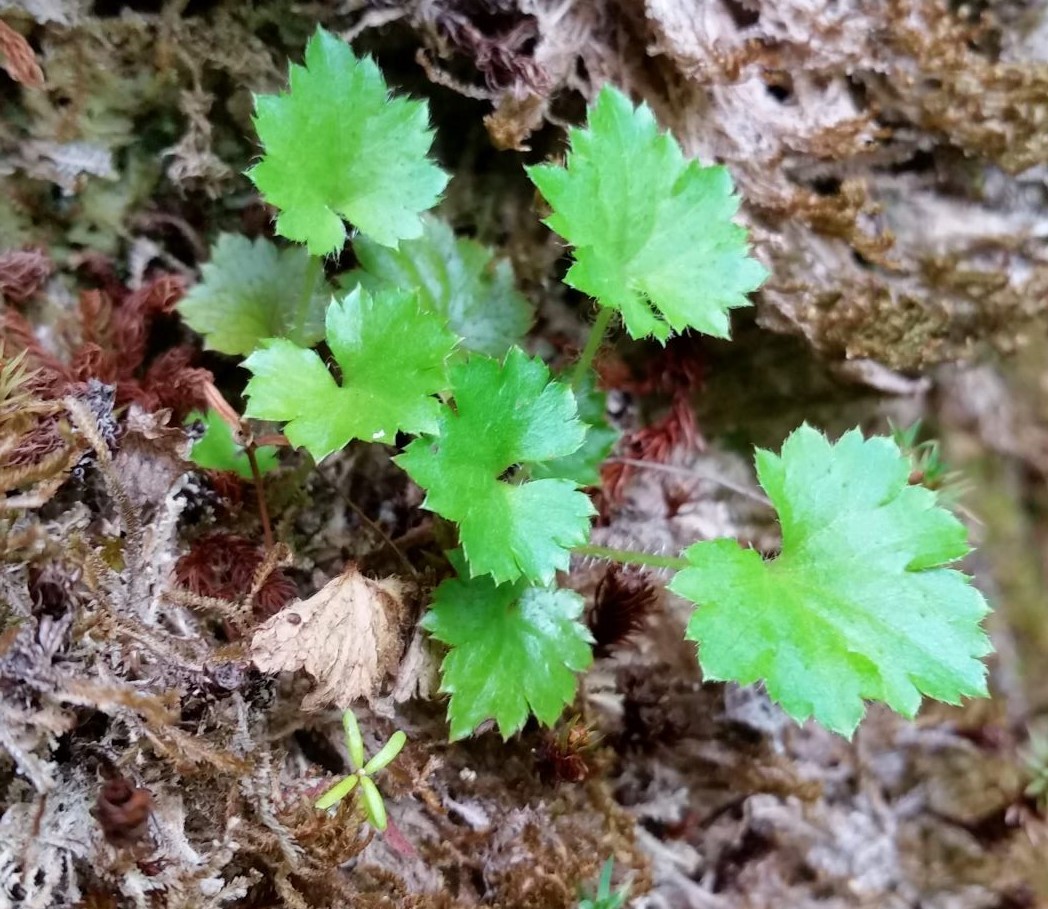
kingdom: Plantae
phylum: Tracheophyta
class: Magnoliopsida
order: Saxifragales
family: Saxifragaceae
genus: Boykinia
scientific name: Boykinia occidentalis
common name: Coast boykinia
